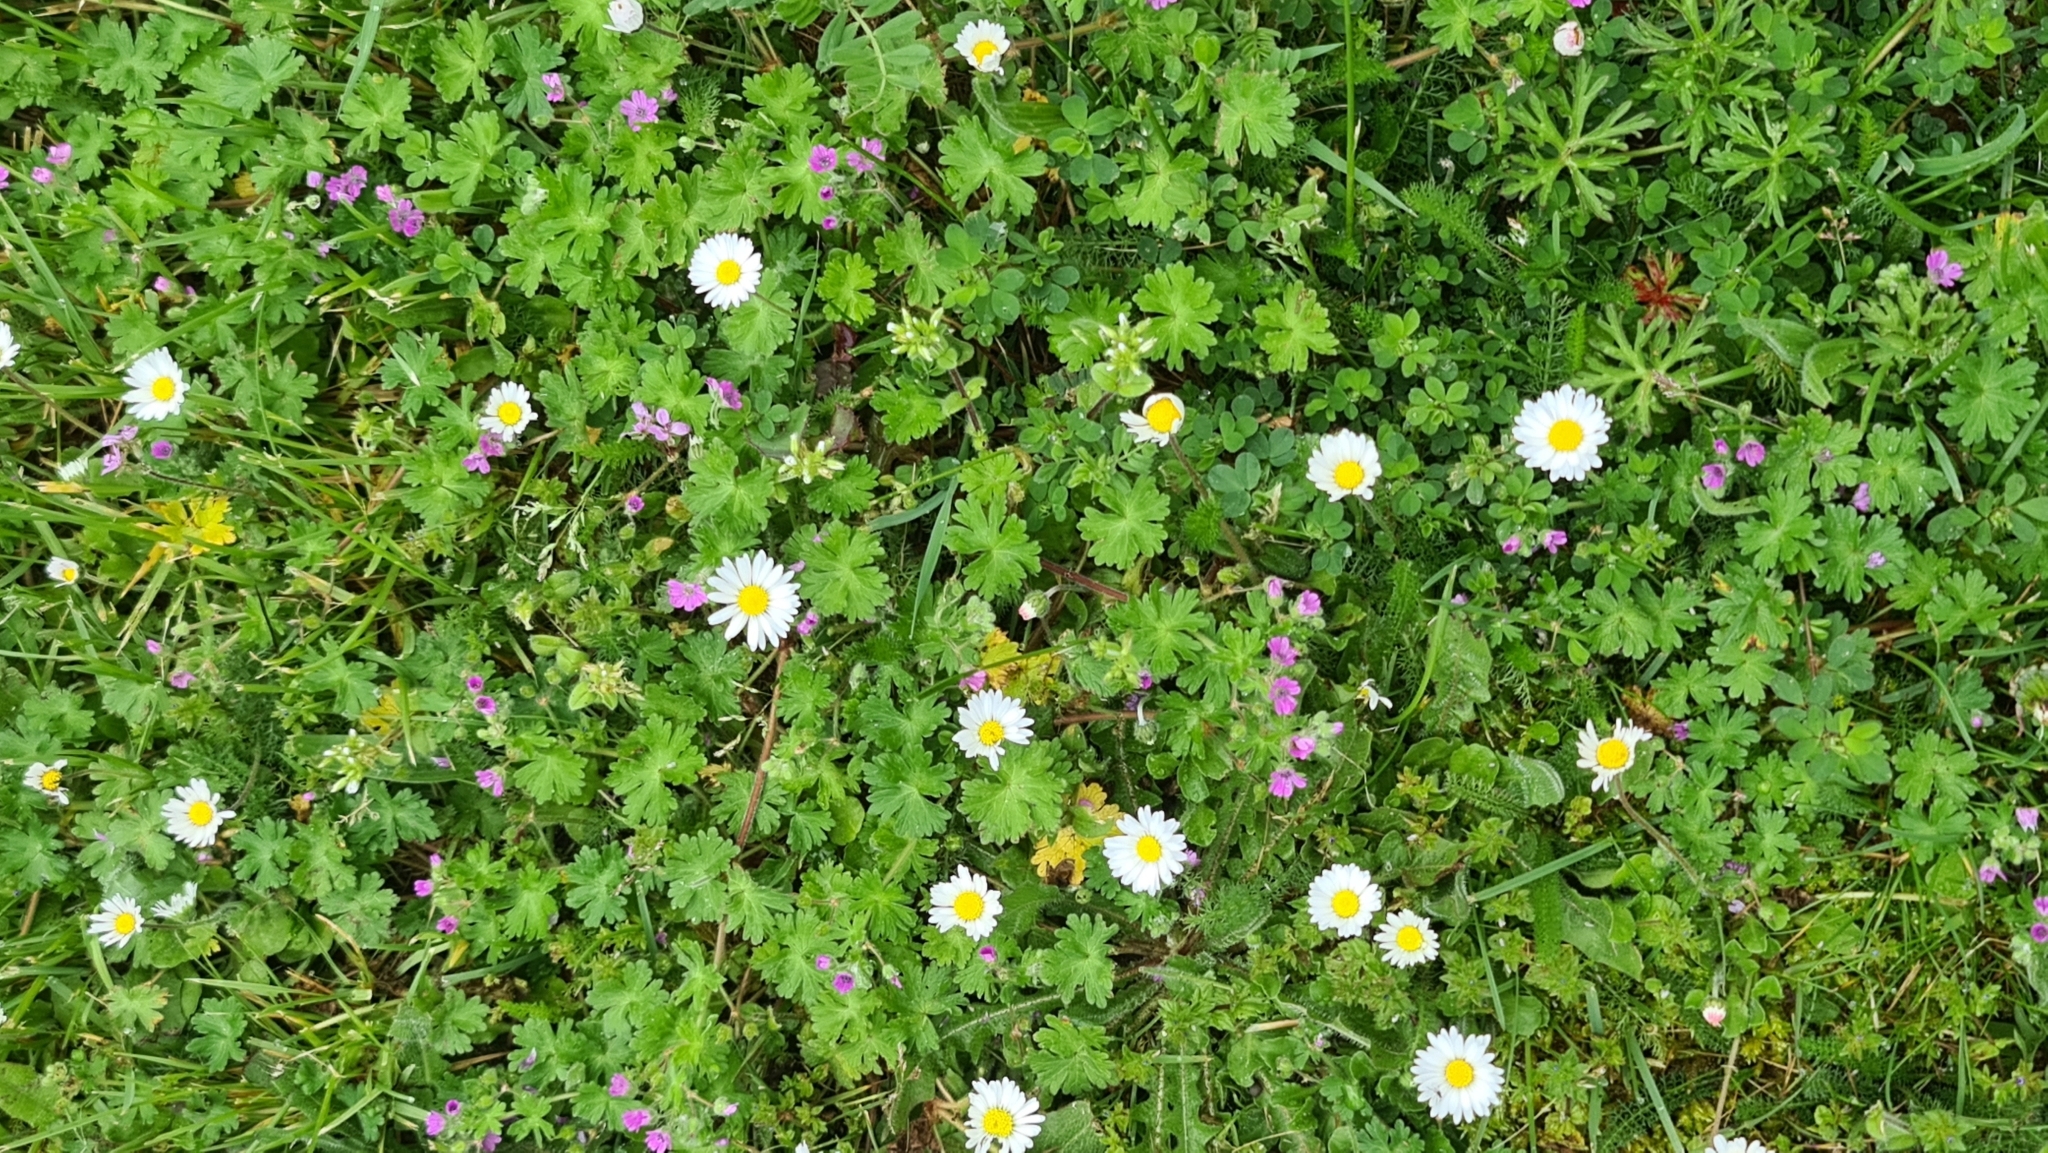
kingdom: Plantae
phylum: Tracheophyta
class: Magnoliopsida
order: Asterales
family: Asteraceae
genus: Bellis
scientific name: Bellis perennis
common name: Lawndaisy
